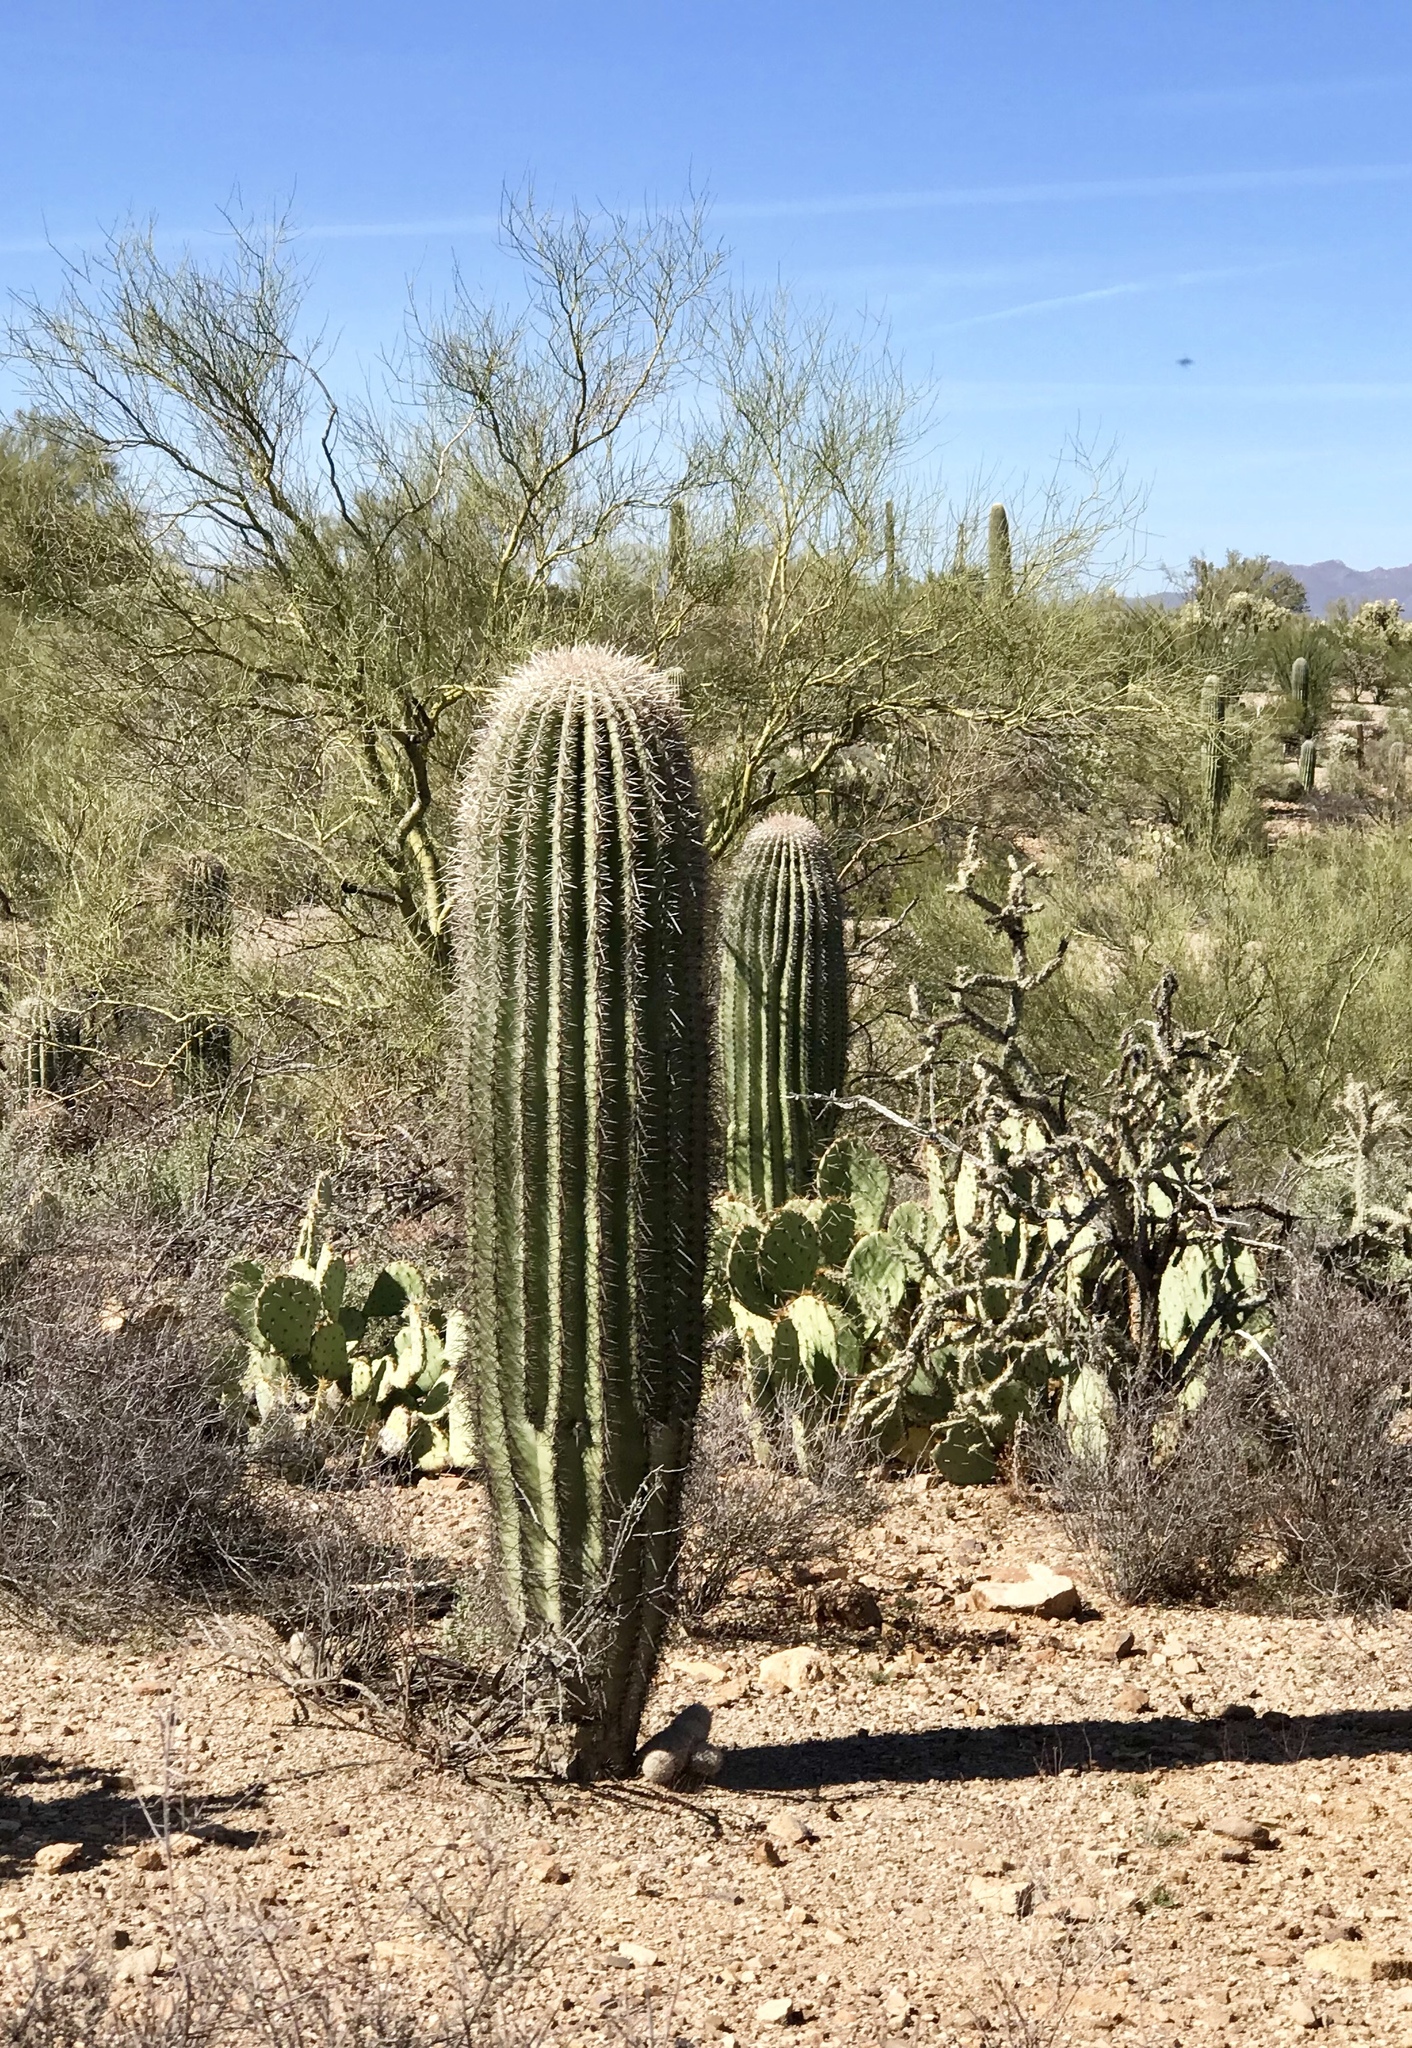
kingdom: Plantae
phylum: Tracheophyta
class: Magnoliopsida
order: Caryophyllales
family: Cactaceae
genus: Carnegiea
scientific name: Carnegiea gigantea
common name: Saguaro
